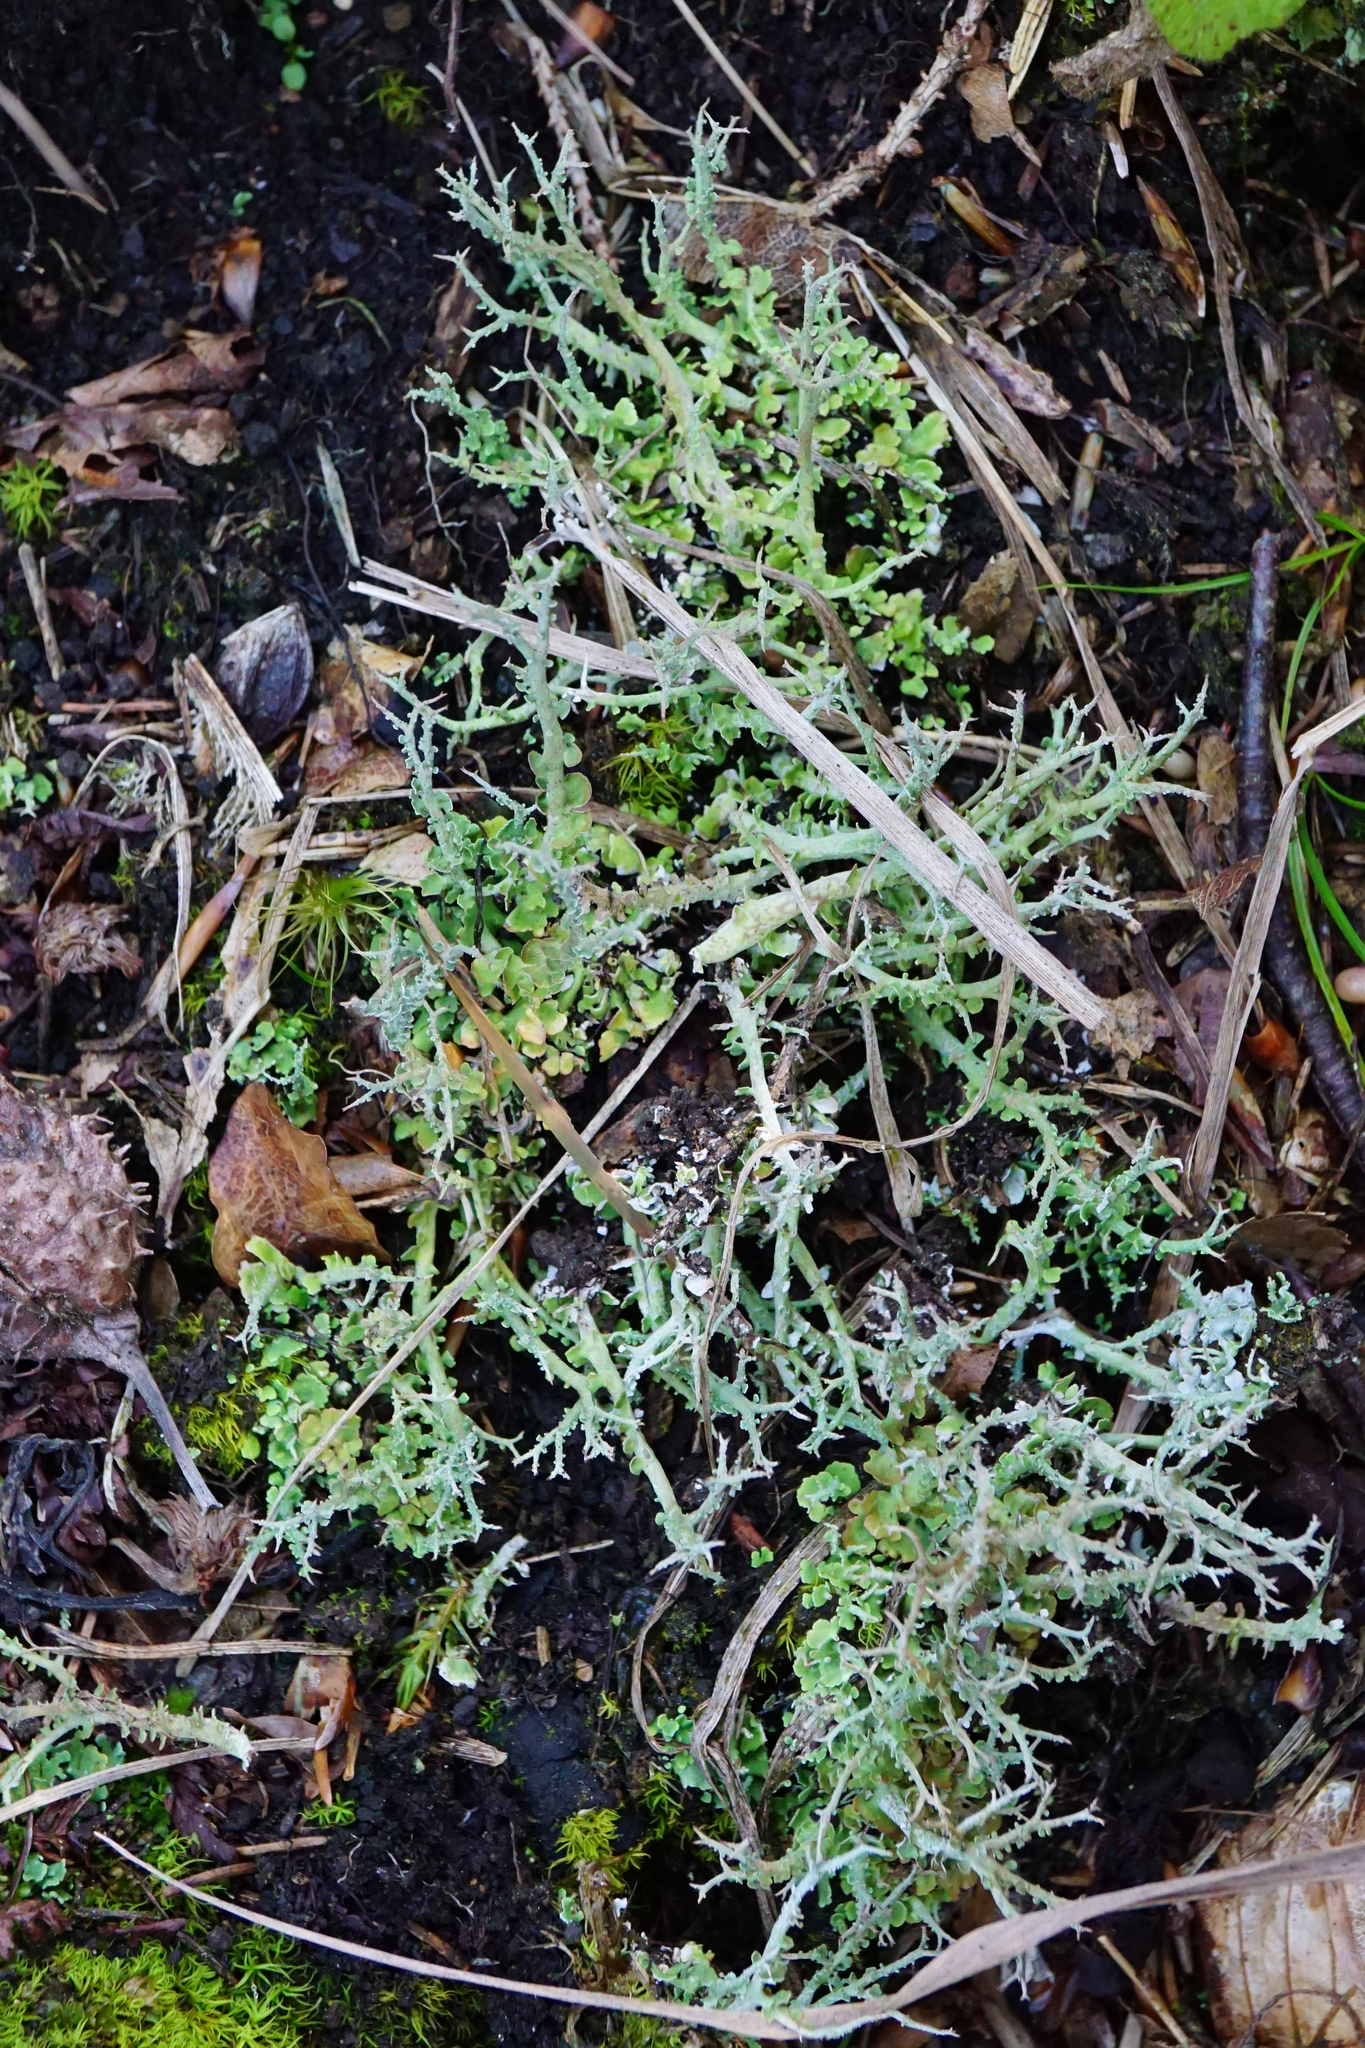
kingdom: Fungi
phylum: Ascomycota
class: Lecanoromycetes
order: Lecanorales
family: Cladoniaceae
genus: Cladonia
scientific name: Cladonia furcata
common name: Many-forked cladonia
